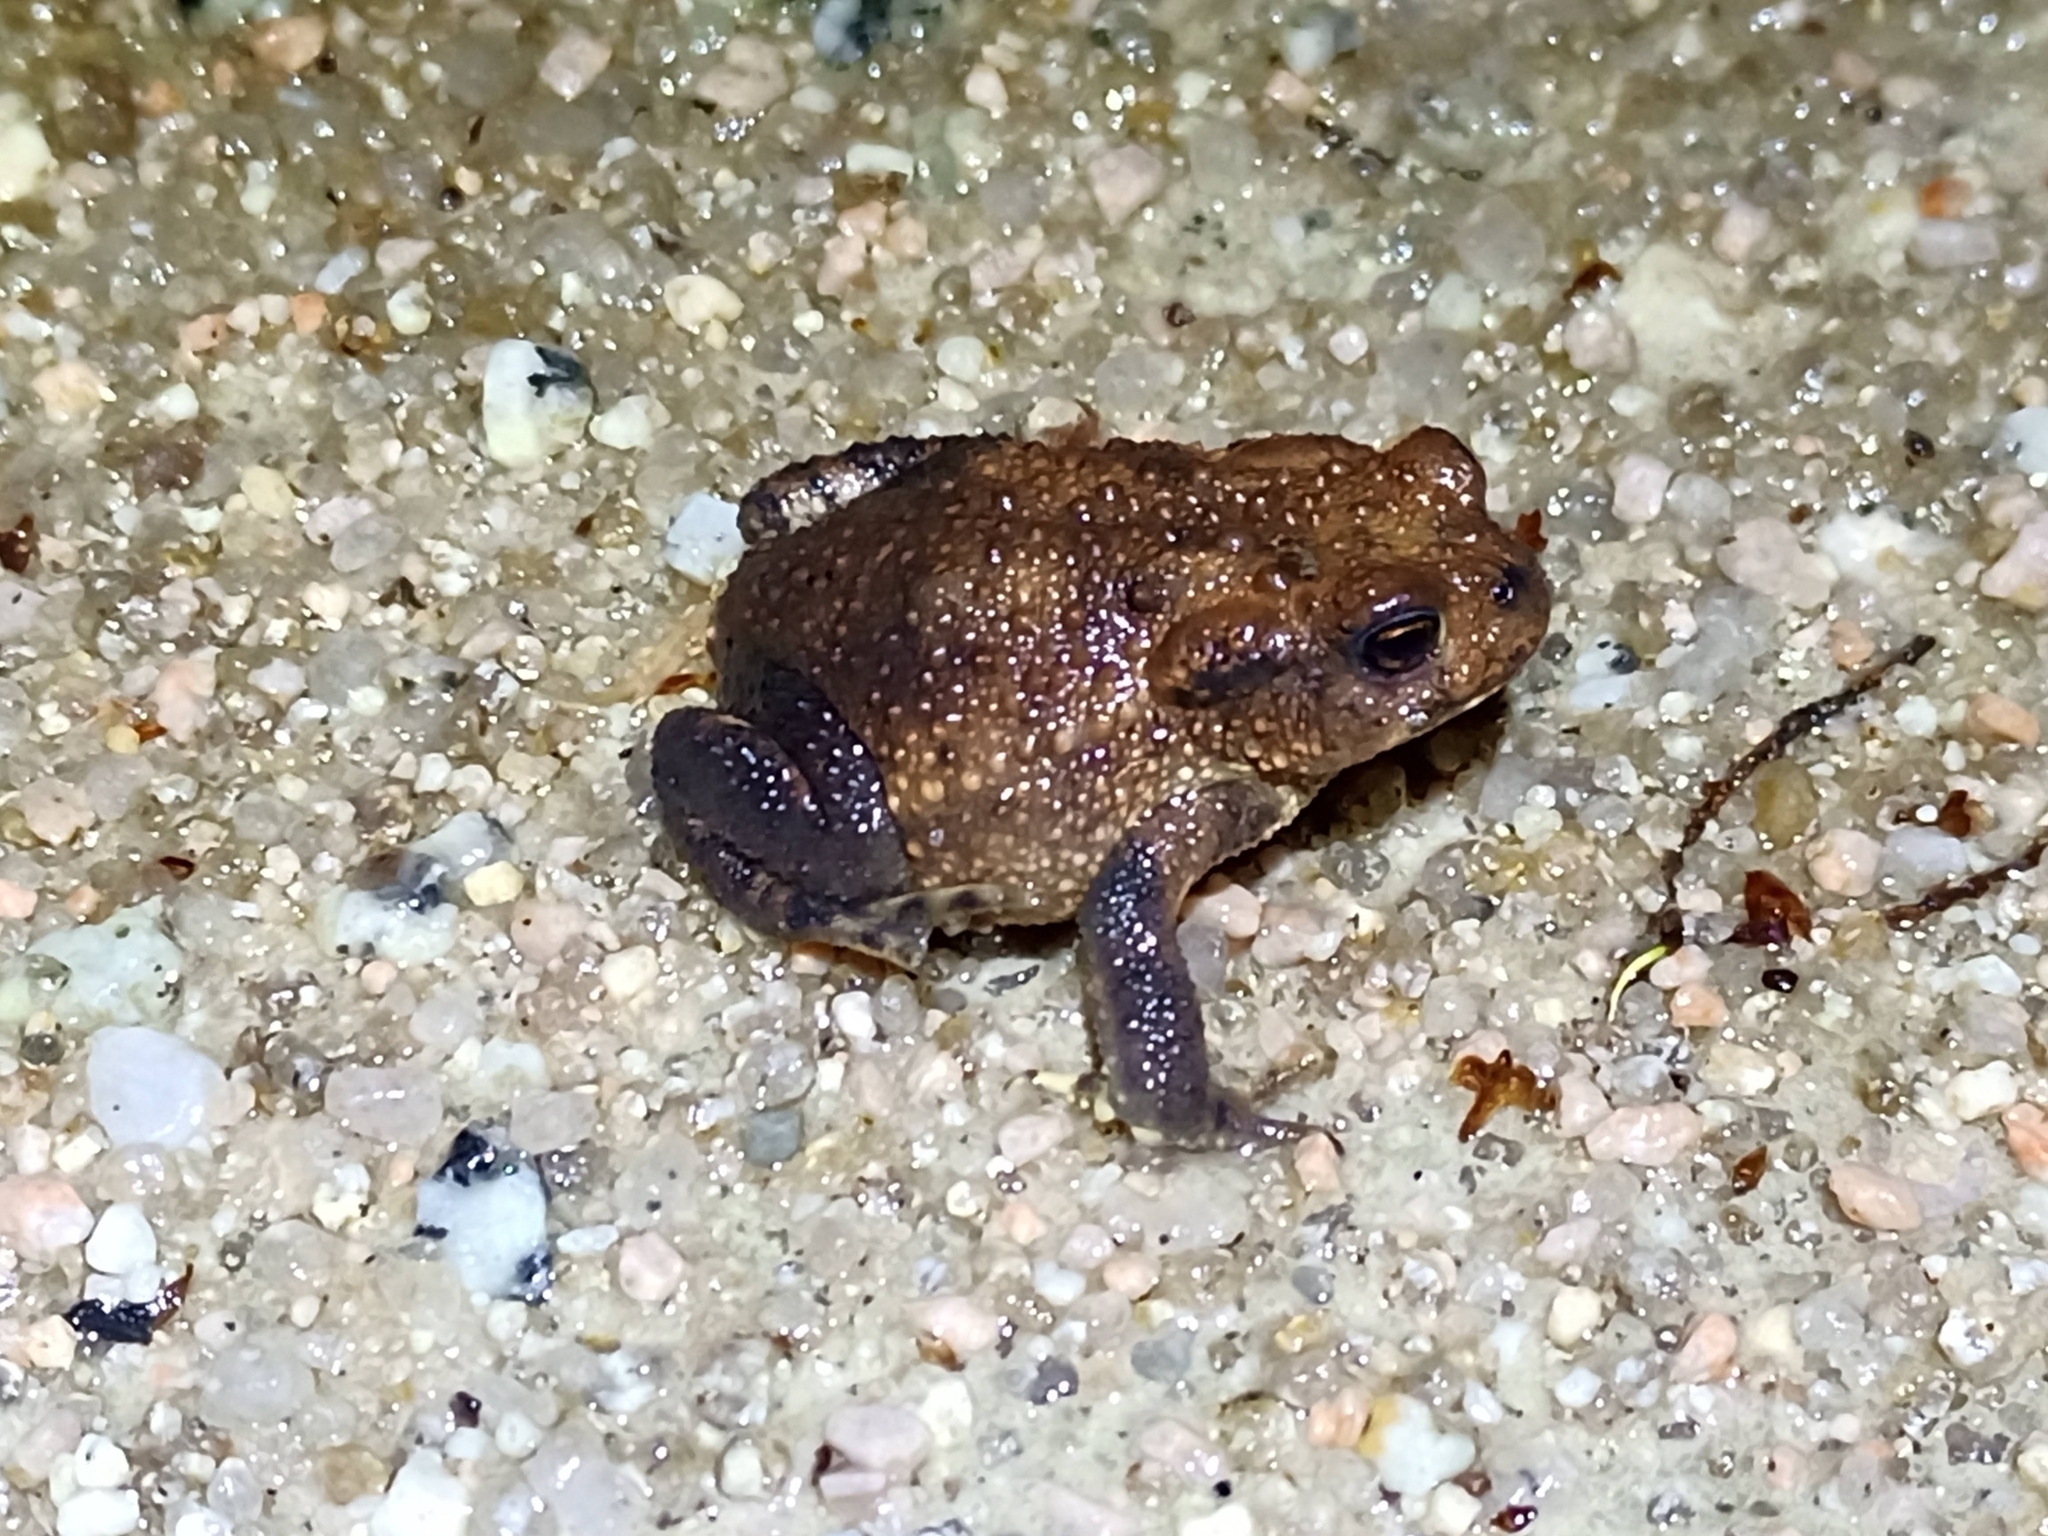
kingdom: Animalia
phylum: Chordata
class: Amphibia
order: Anura
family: Bufonidae
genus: Bufo
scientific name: Bufo spinosus
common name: Western common toad
